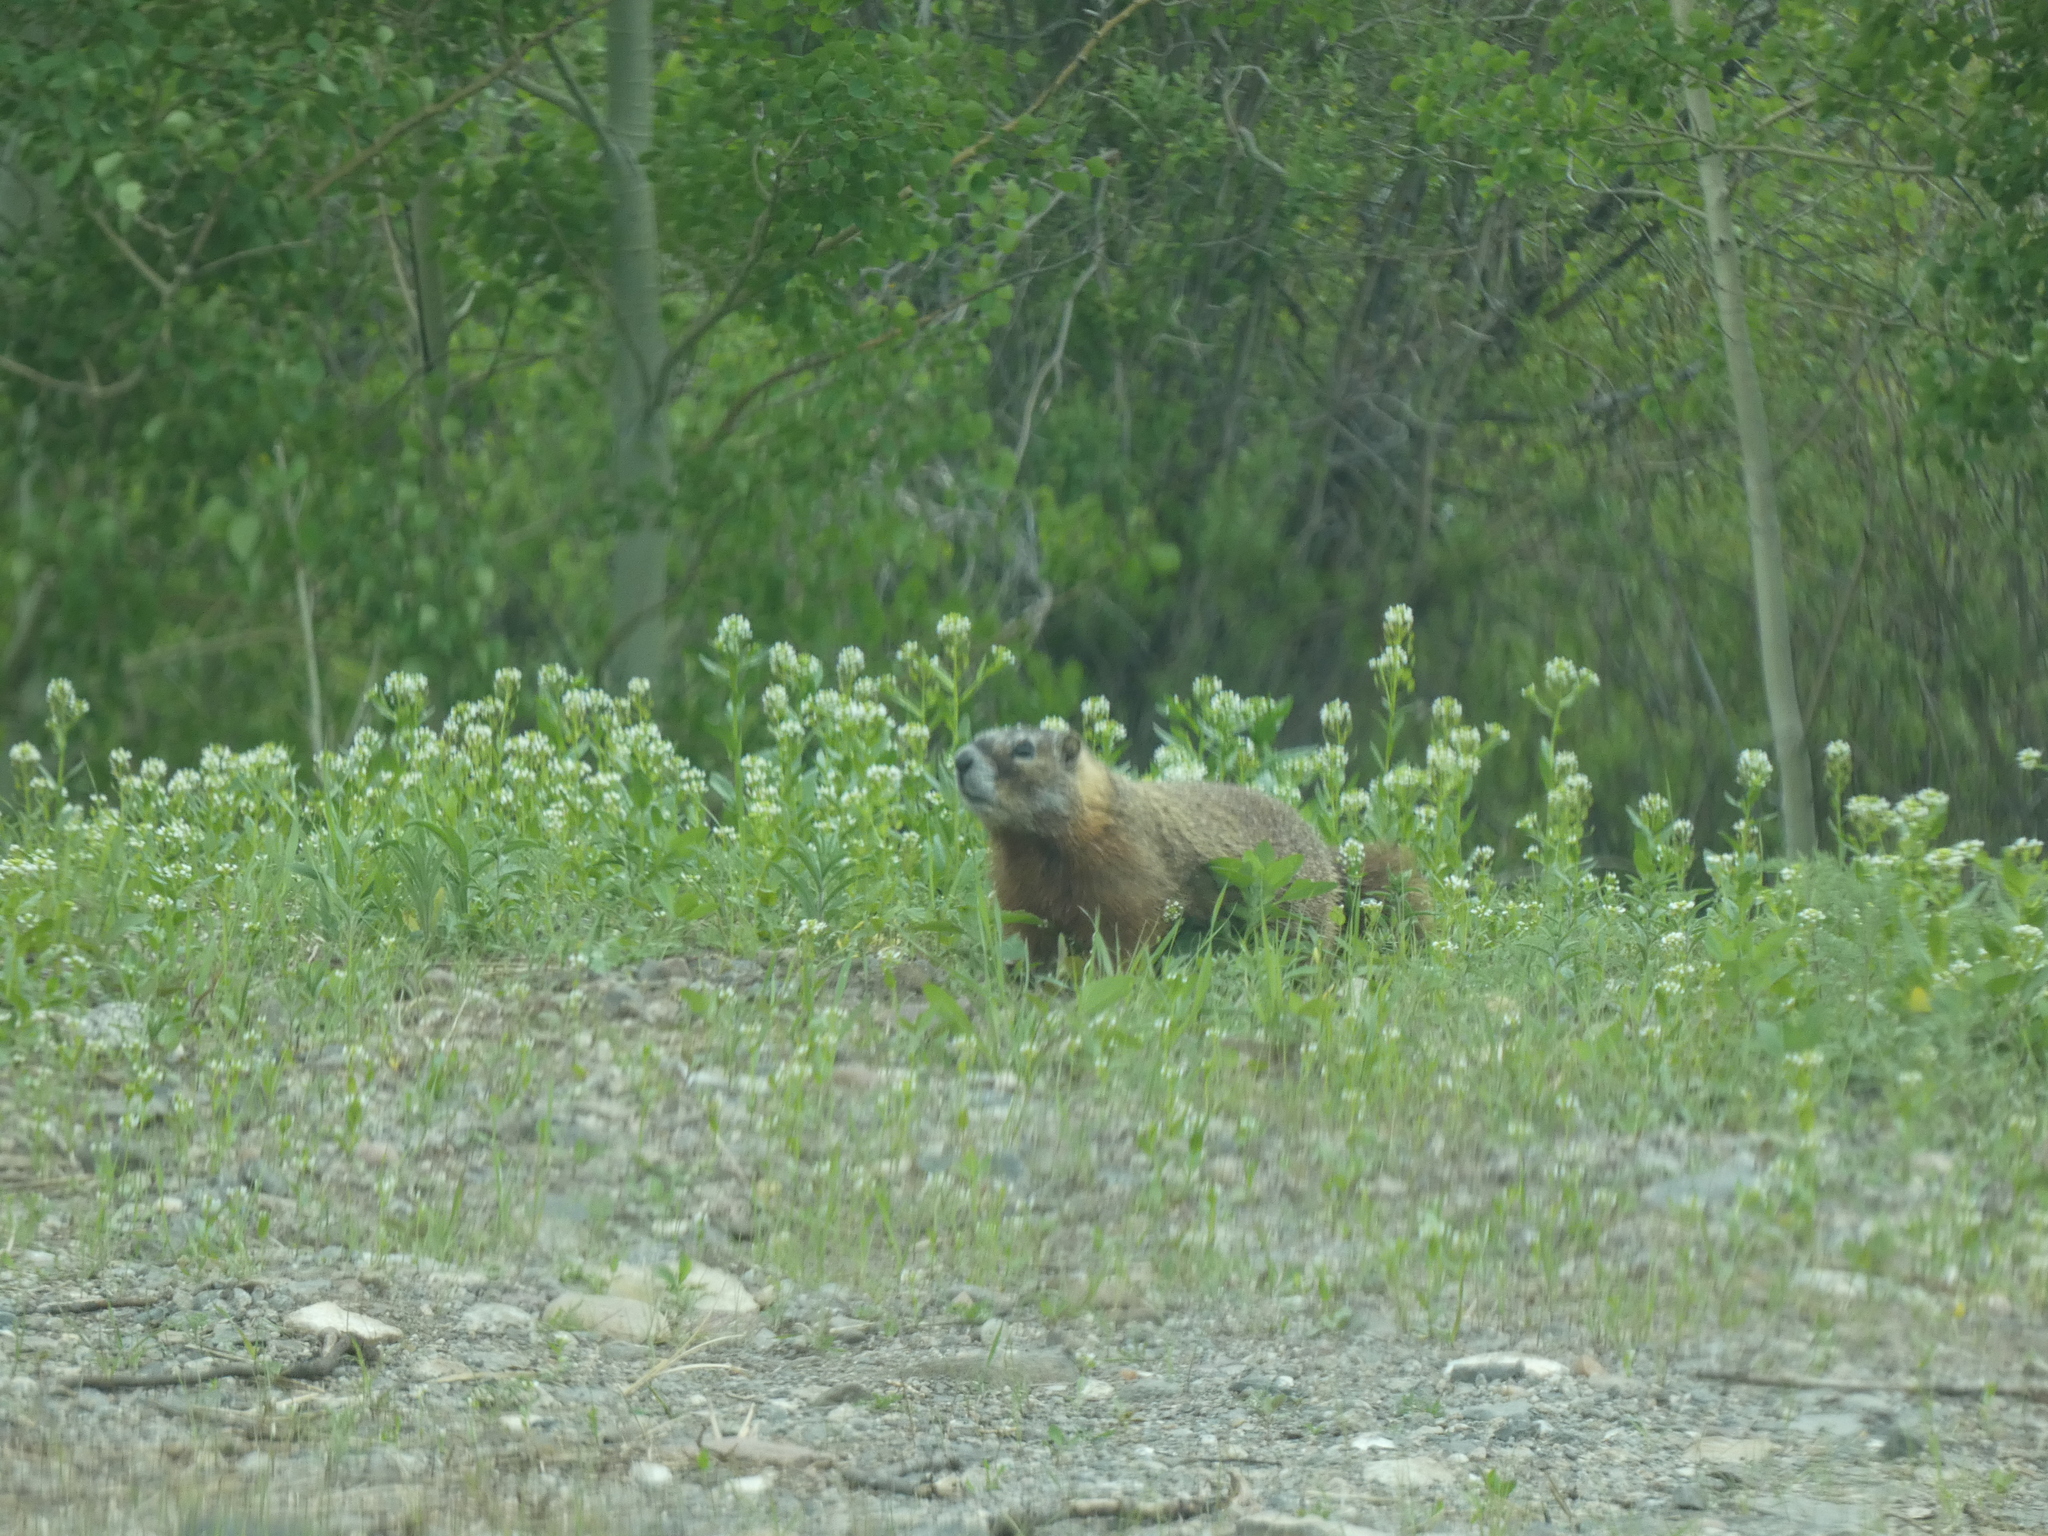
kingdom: Animalia
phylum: Chordata
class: Mammalia
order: Rodentia
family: Sciuridae
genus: Marmota
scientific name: Marmota flaviventris
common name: Yellow-bellied marmot
